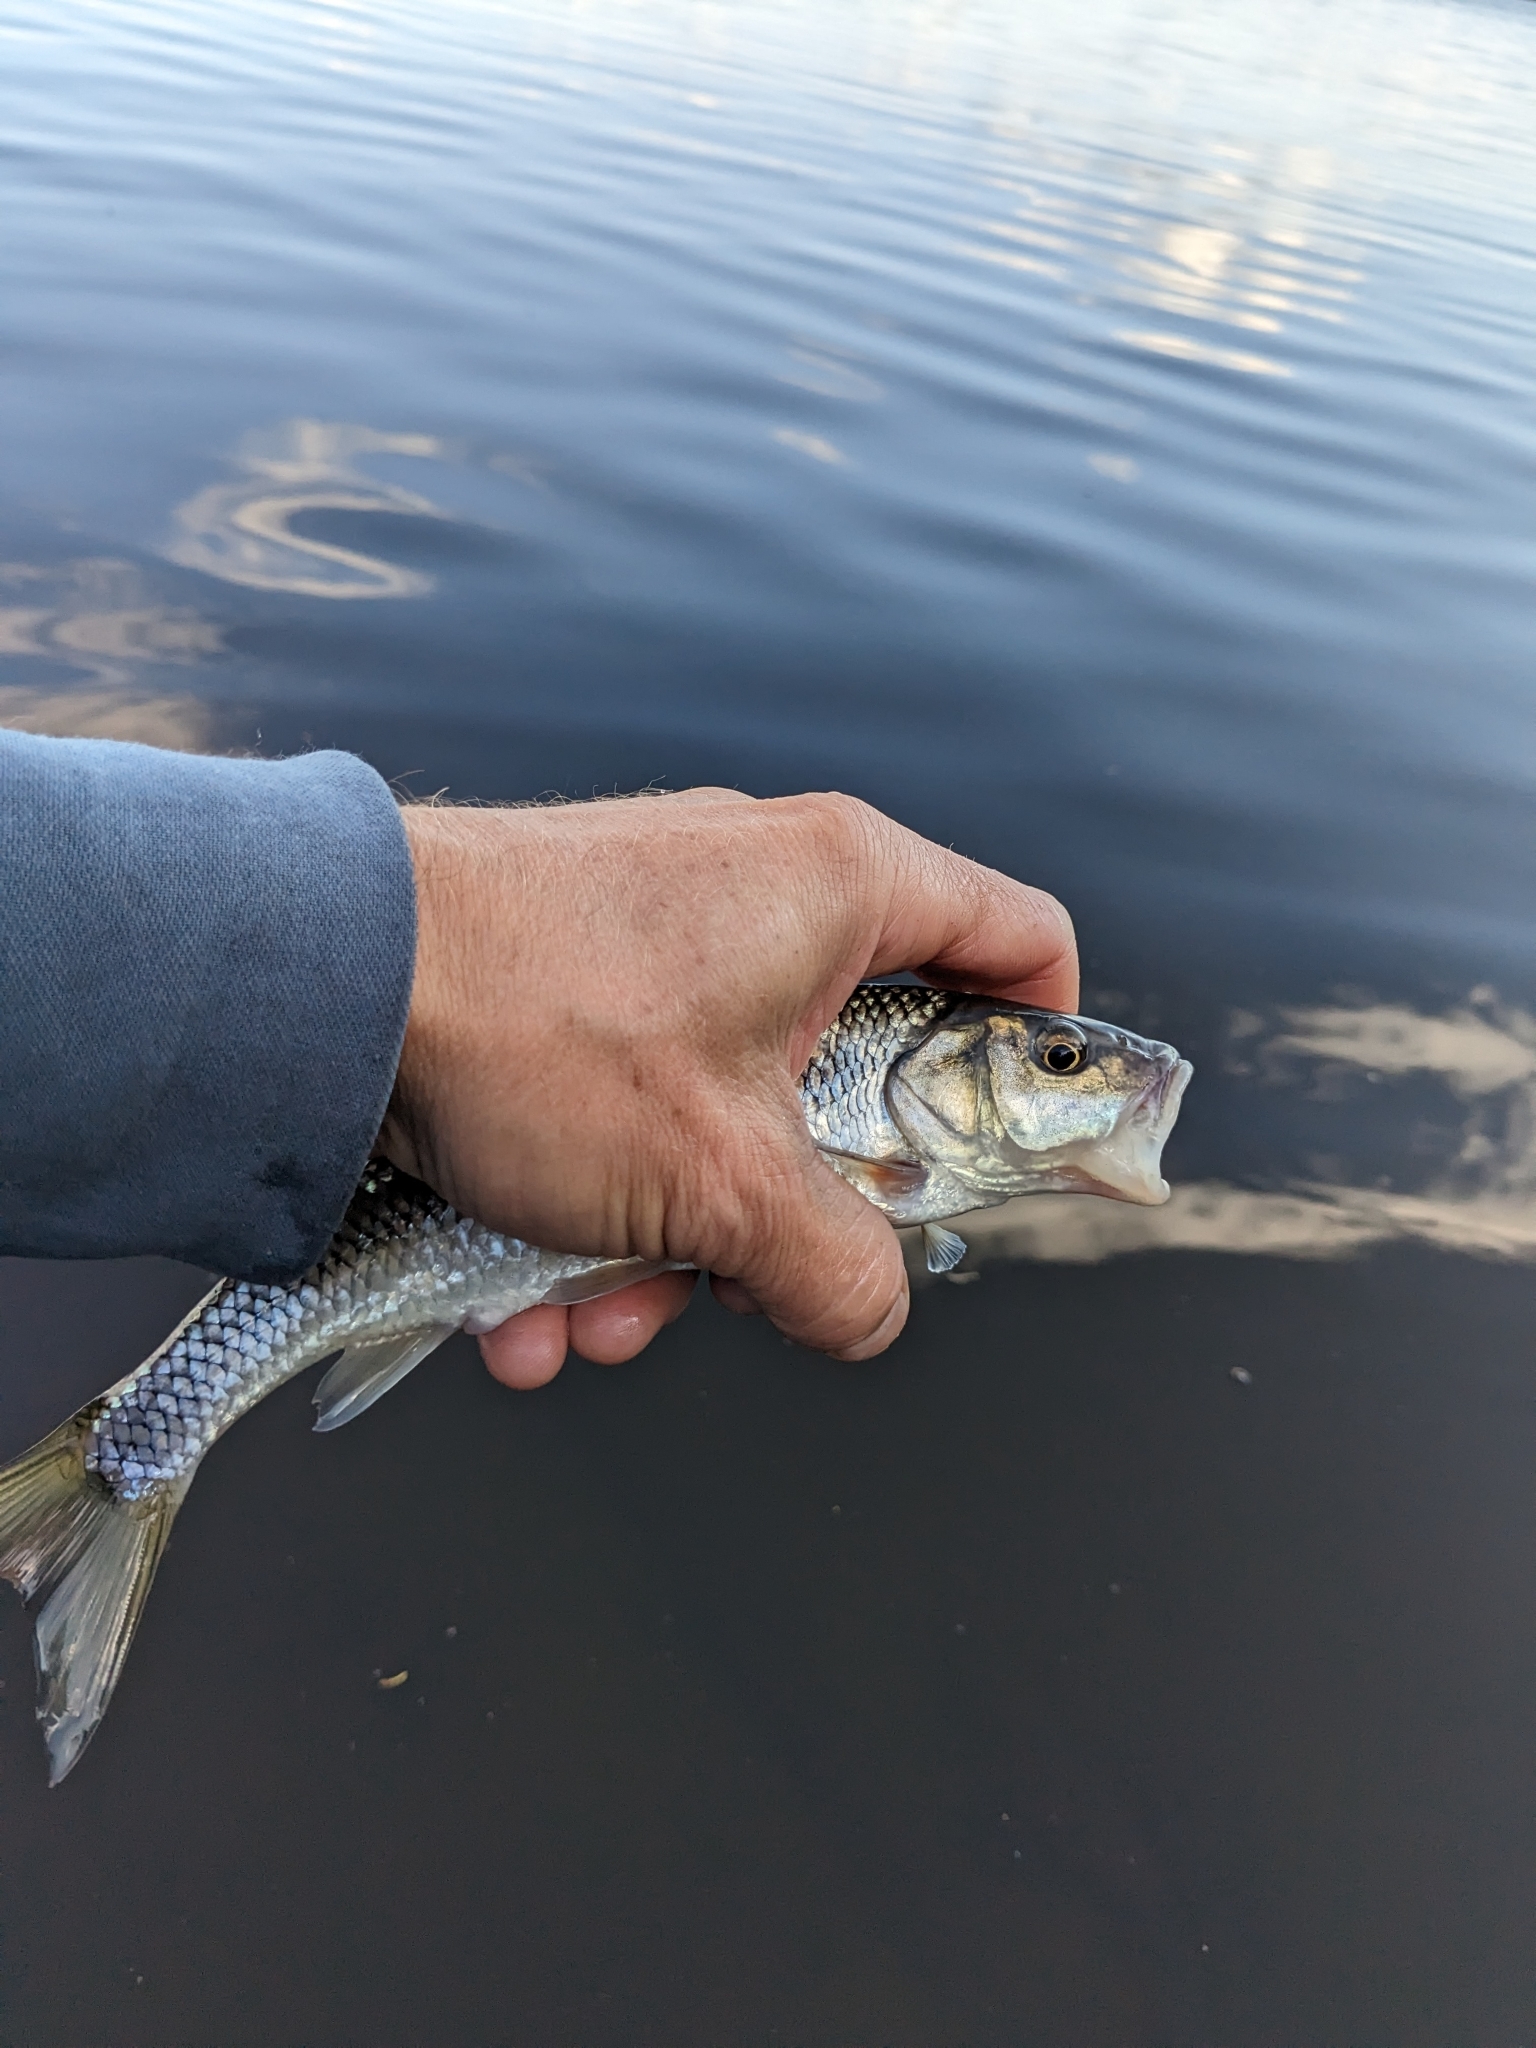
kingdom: Animalia
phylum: Chordata
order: Cypriniformes
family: Cyprinidae
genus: Semotilus
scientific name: Semotilus corporalis
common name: Fallfish
